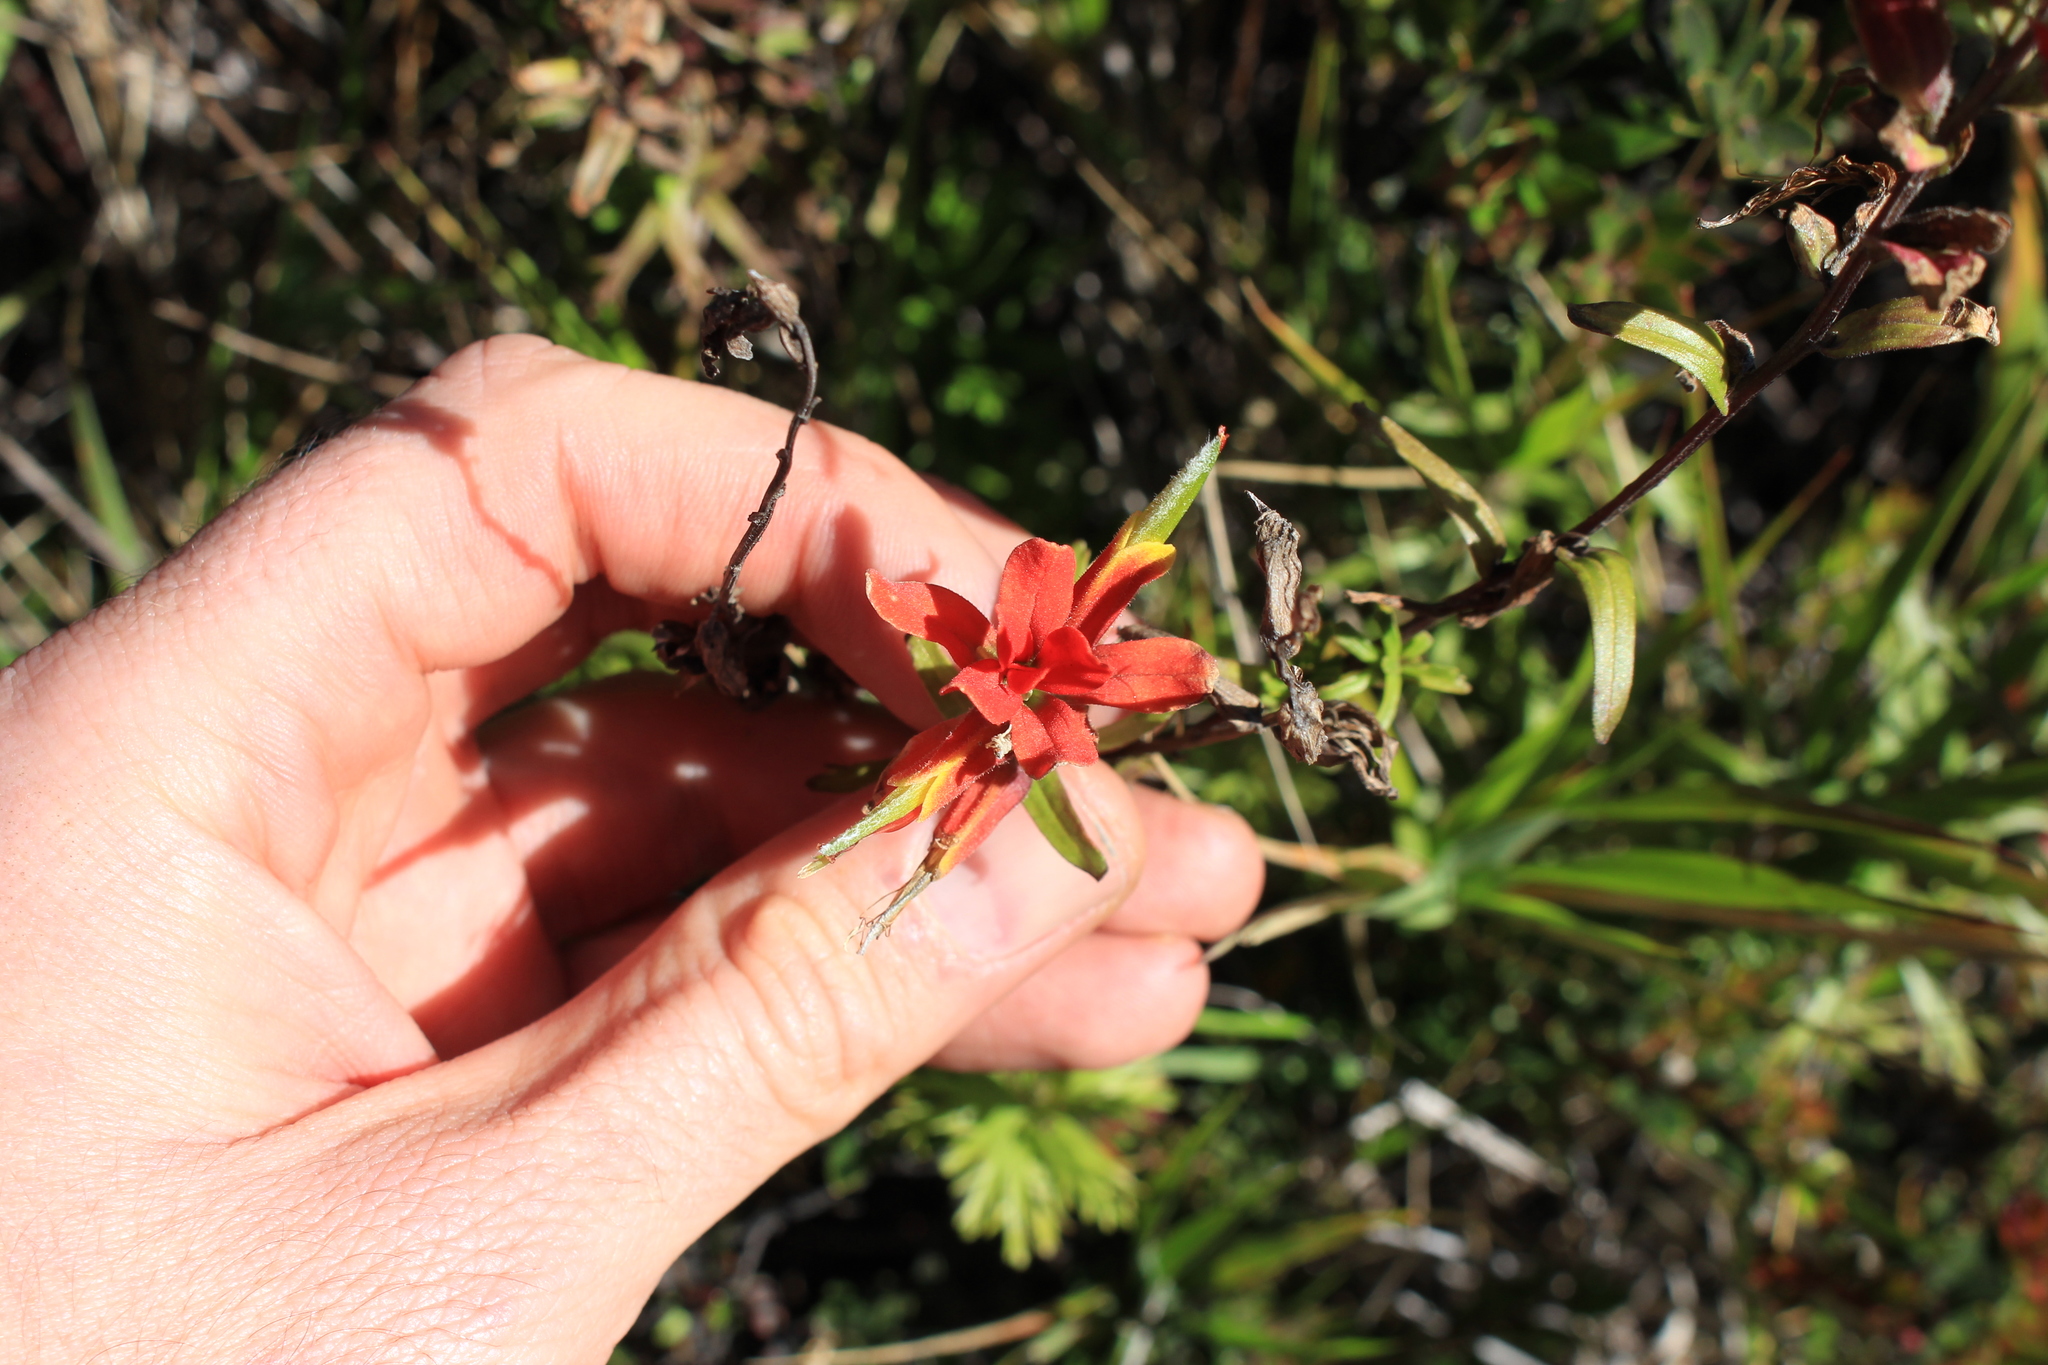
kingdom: Plantae
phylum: Tracheophyta
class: Magnoliopsida
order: Lamiales
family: Orobanchaceae
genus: Castilleja
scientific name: Castilleja irasuensis
